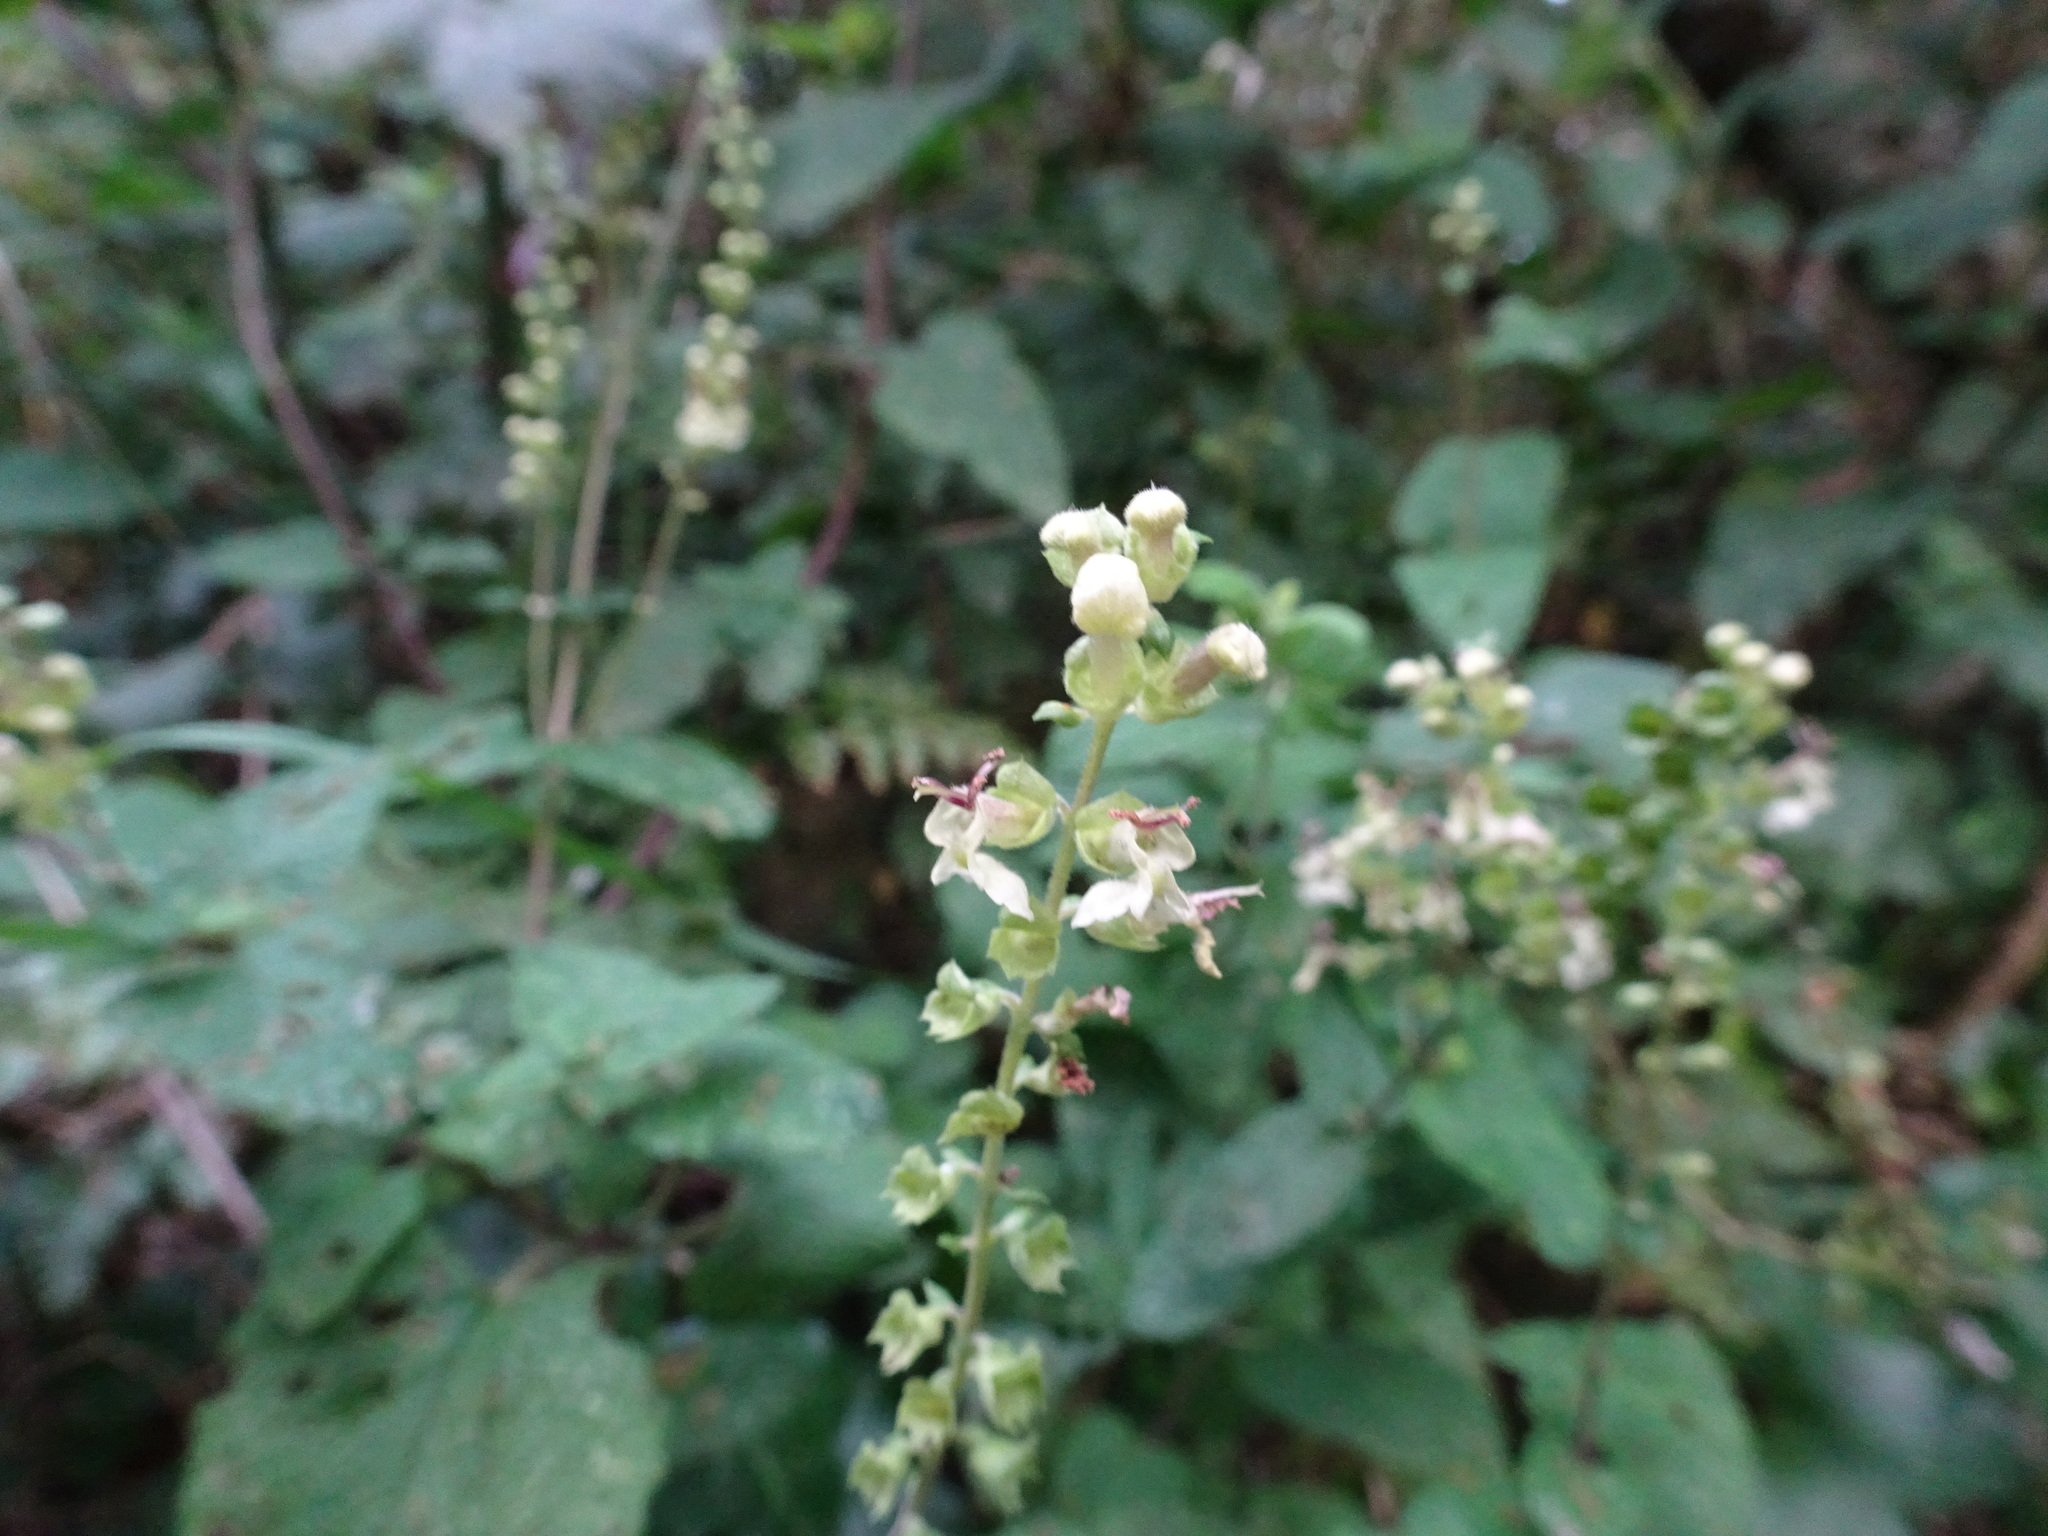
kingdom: Plantae
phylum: Tracheophyta
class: Magnoliopsida
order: Lamiales
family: Lamiaceae
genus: Teucrium
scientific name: Teucrium scorodonia
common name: Woodland germander
